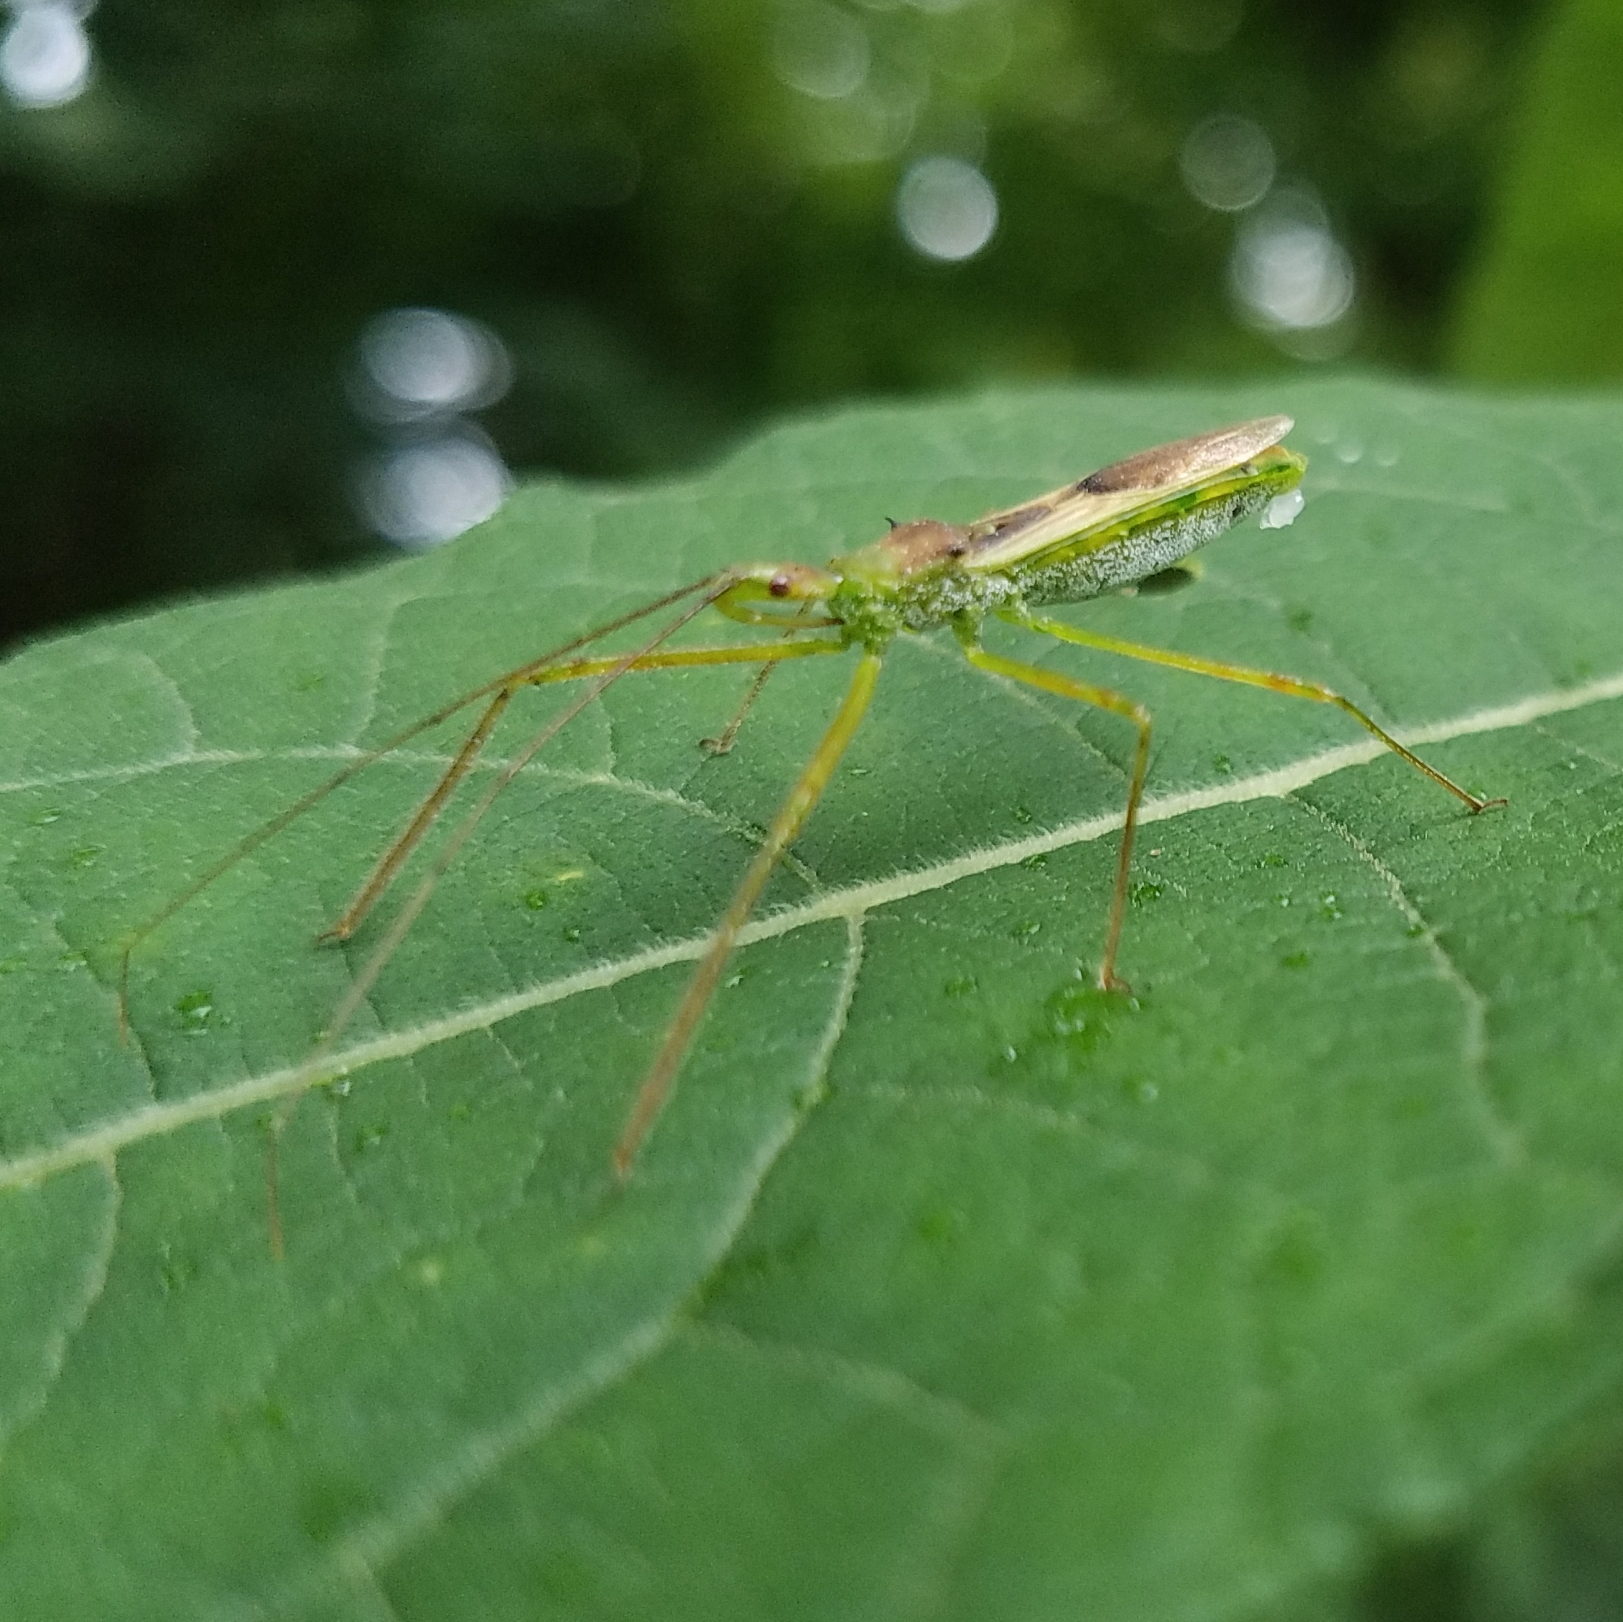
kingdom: Animalia
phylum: Arthropoda
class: Insecta
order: Hemiptera
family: Reduviidae
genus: Zelus
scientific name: Zelus luridus
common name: Pale green assassin bug
